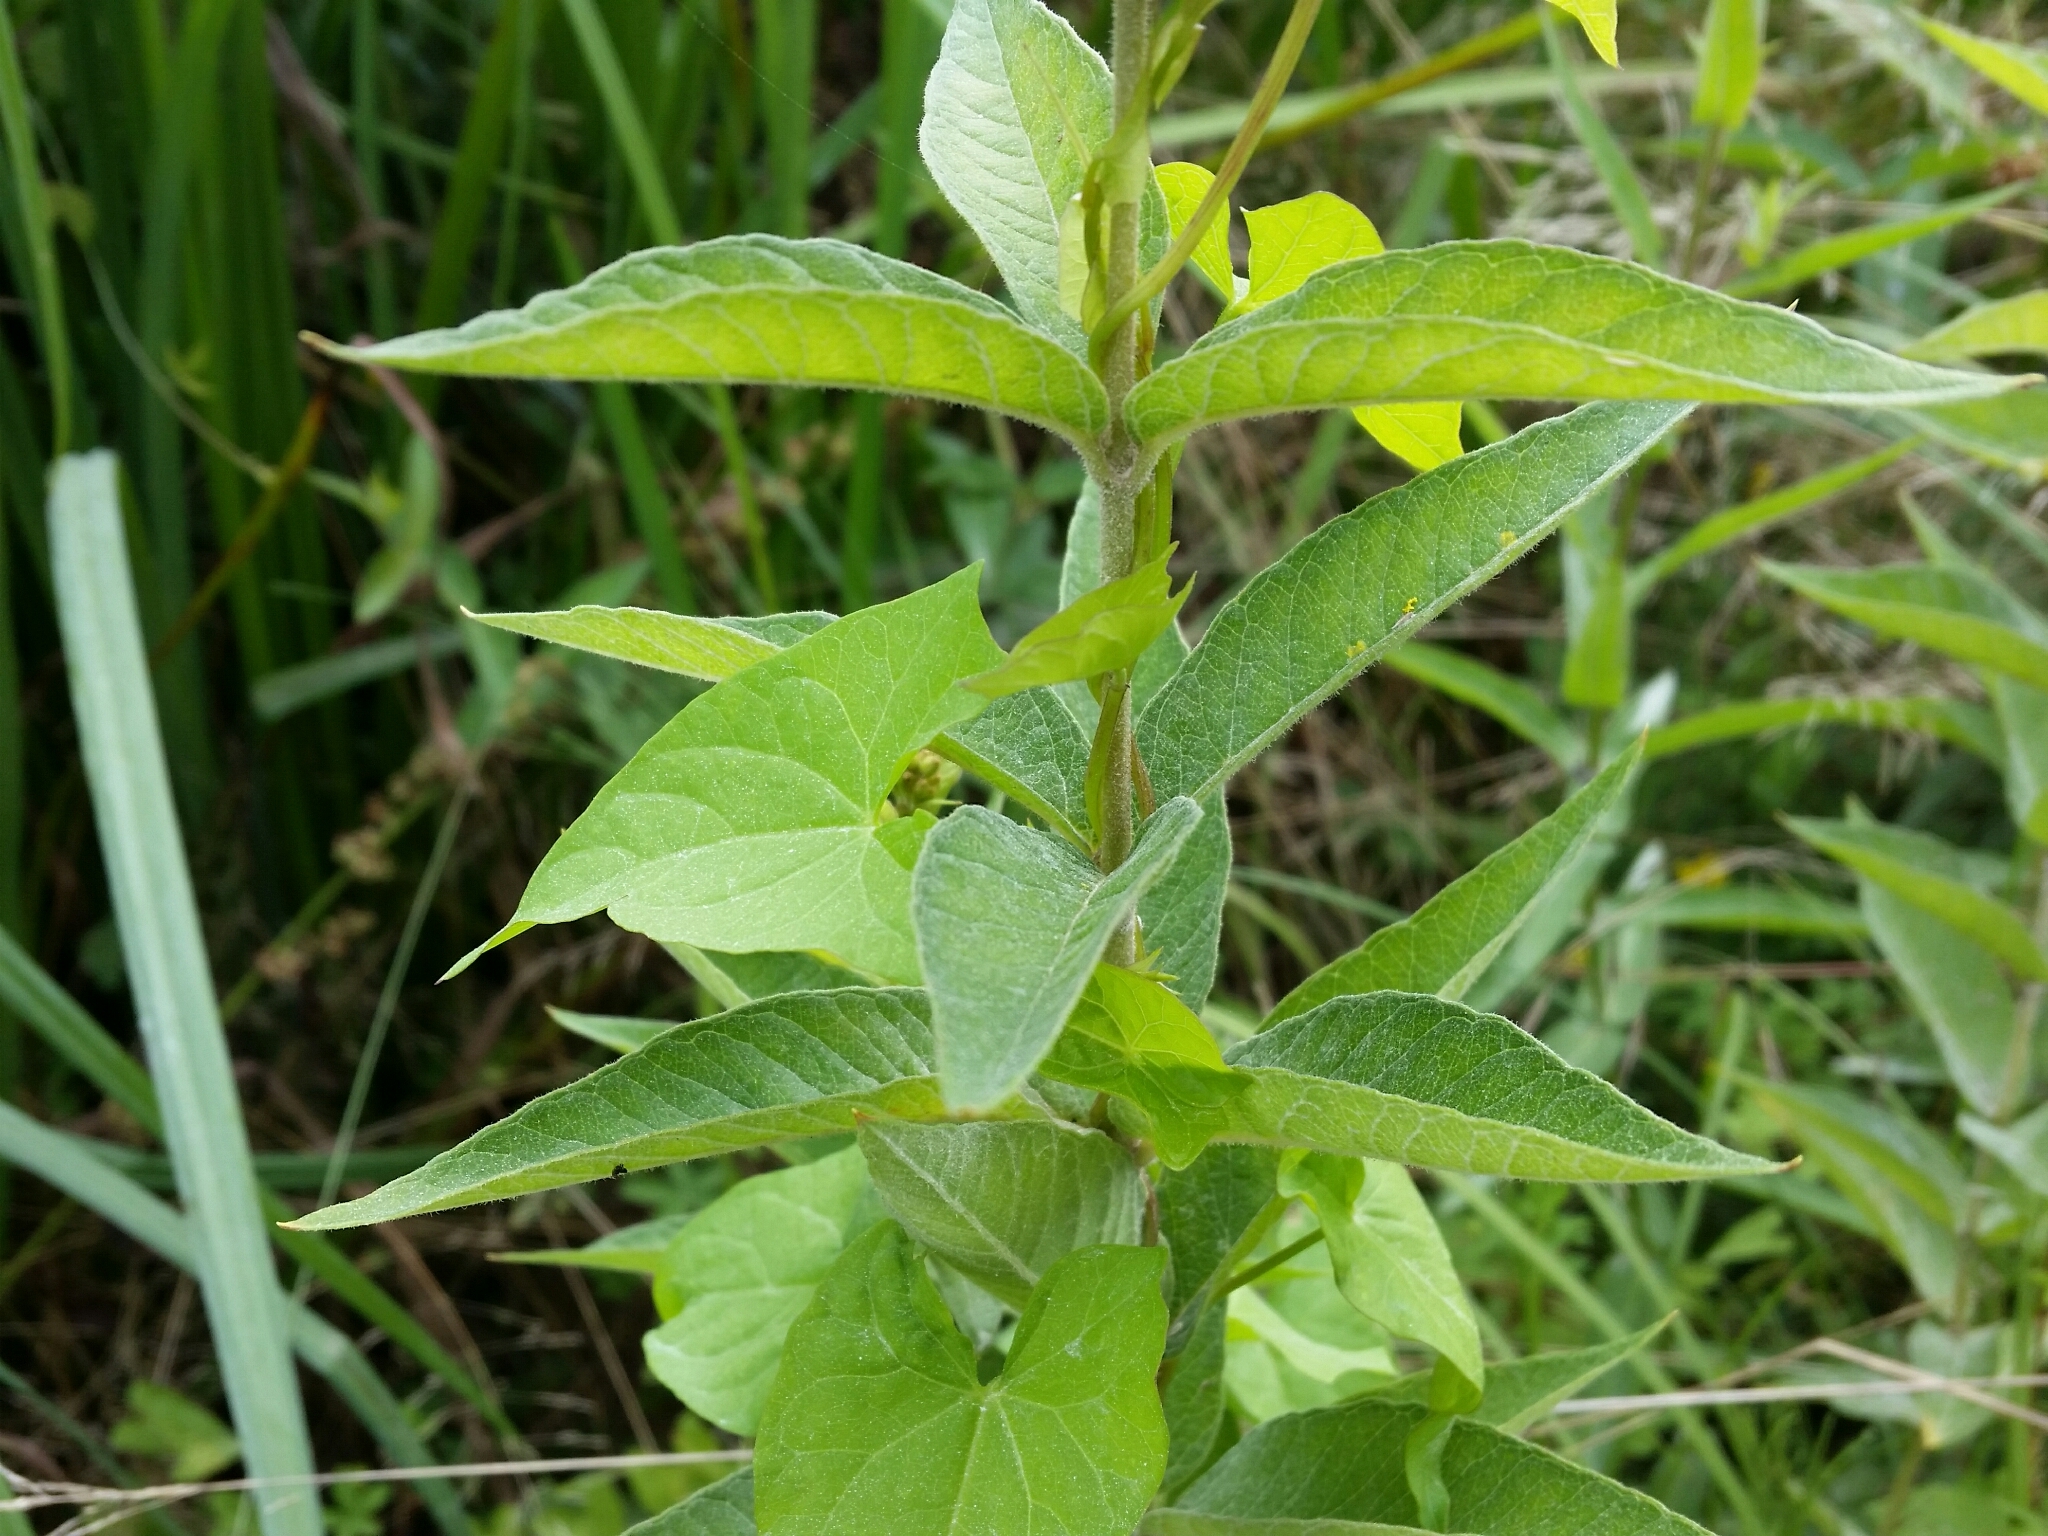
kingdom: Plantae
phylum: Tracheophyta
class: Magnoliopsida
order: Ericales
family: Primulaceae
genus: Lysimachia
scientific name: Lysimachia vulgaris
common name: Yellow loosestrife
